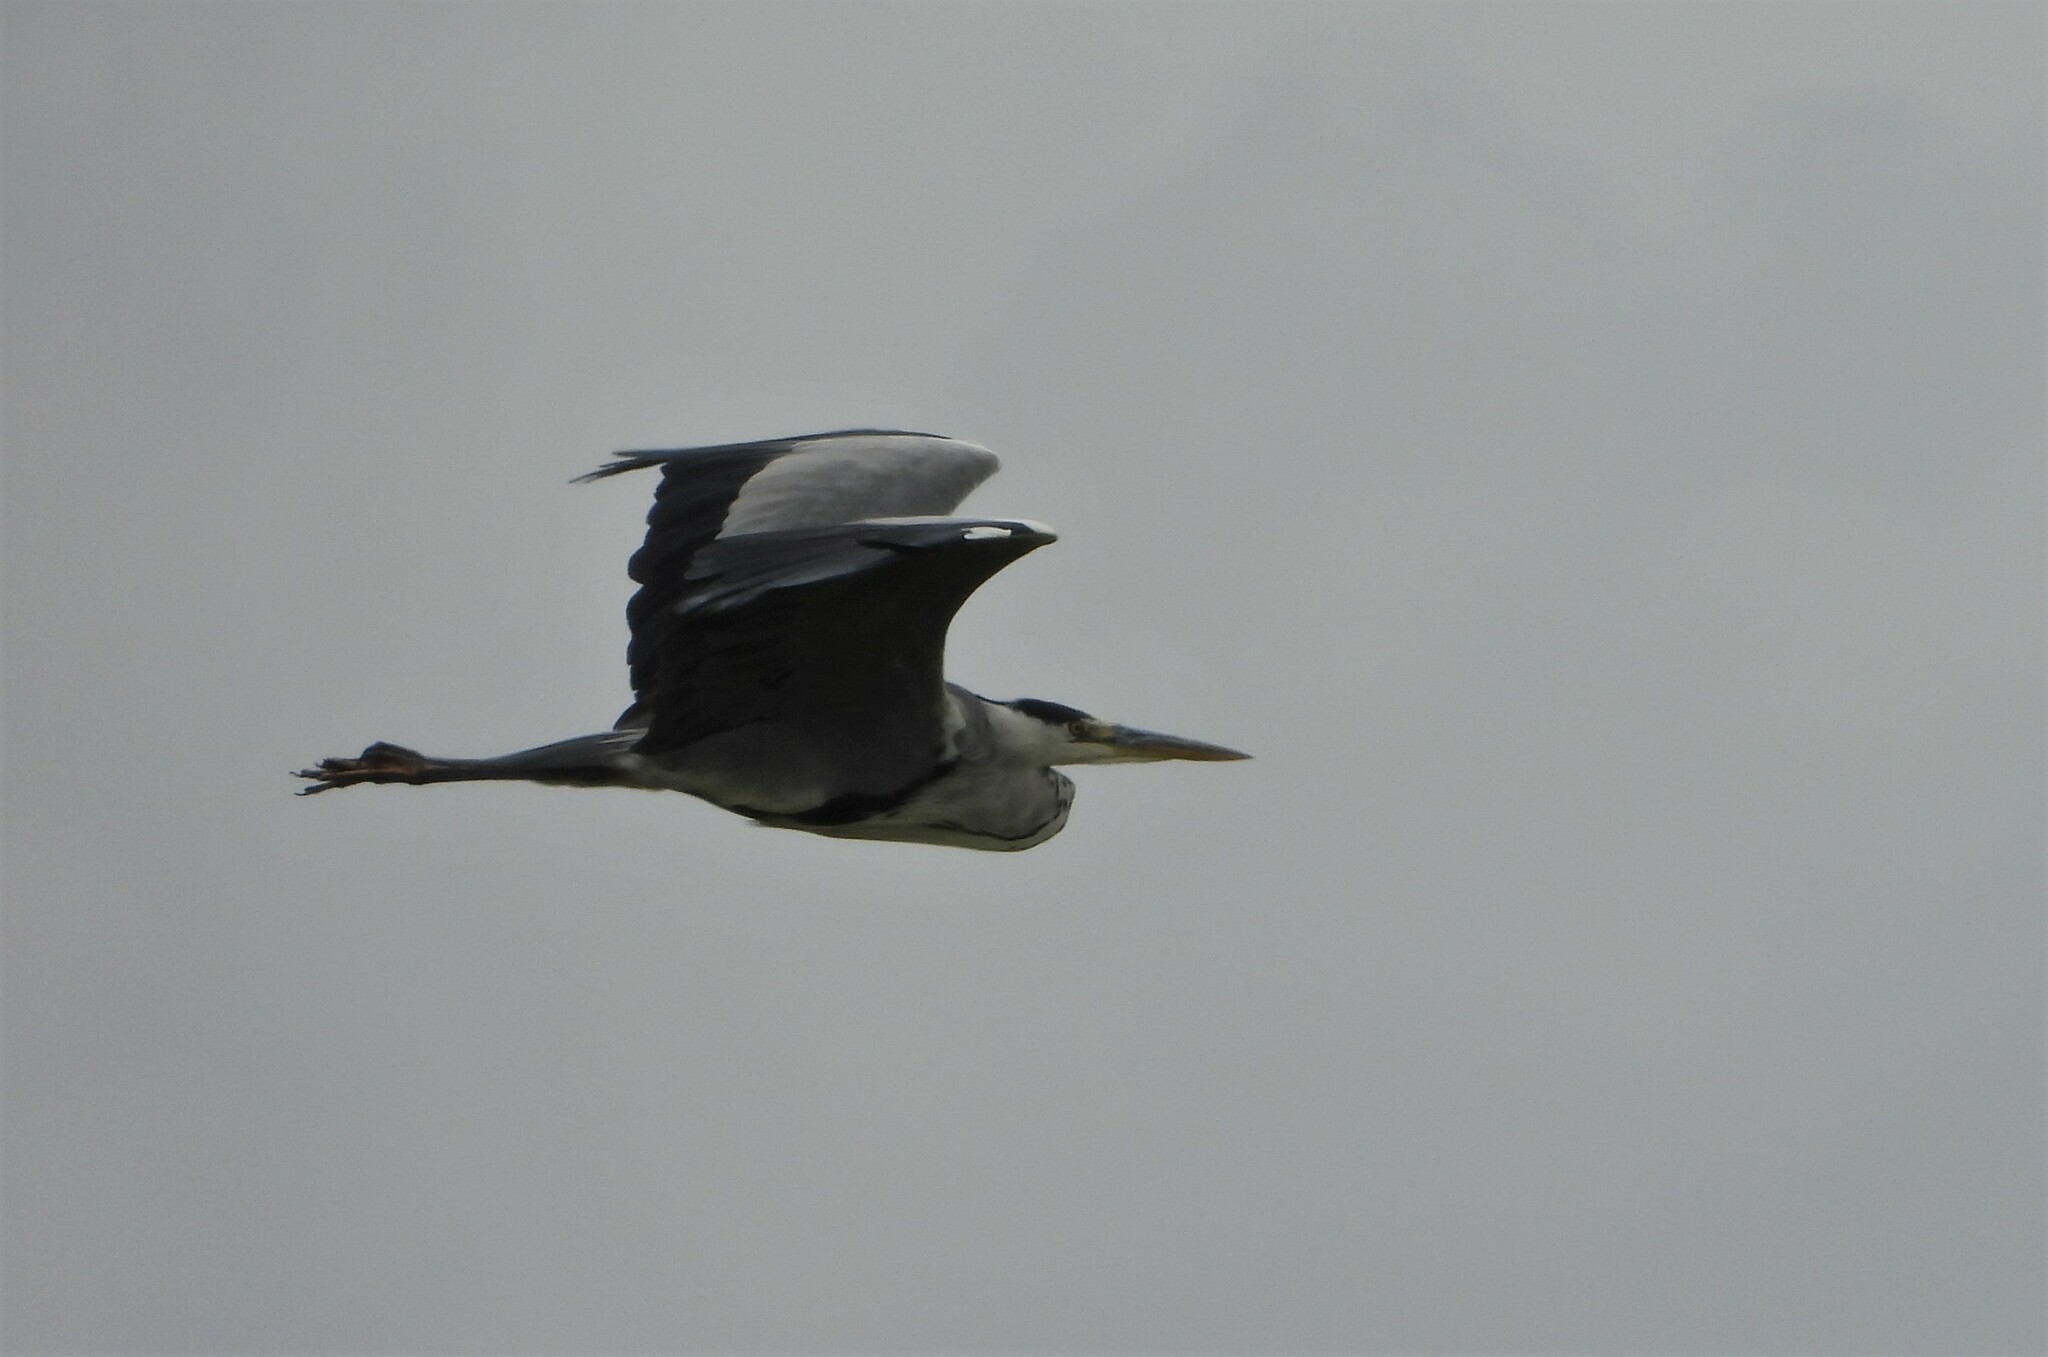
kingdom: Animalia
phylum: Chordata
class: Aves
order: Pelecaniformes
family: Ardeidae
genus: Ardea
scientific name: Ardea cinerea
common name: Grey heron
